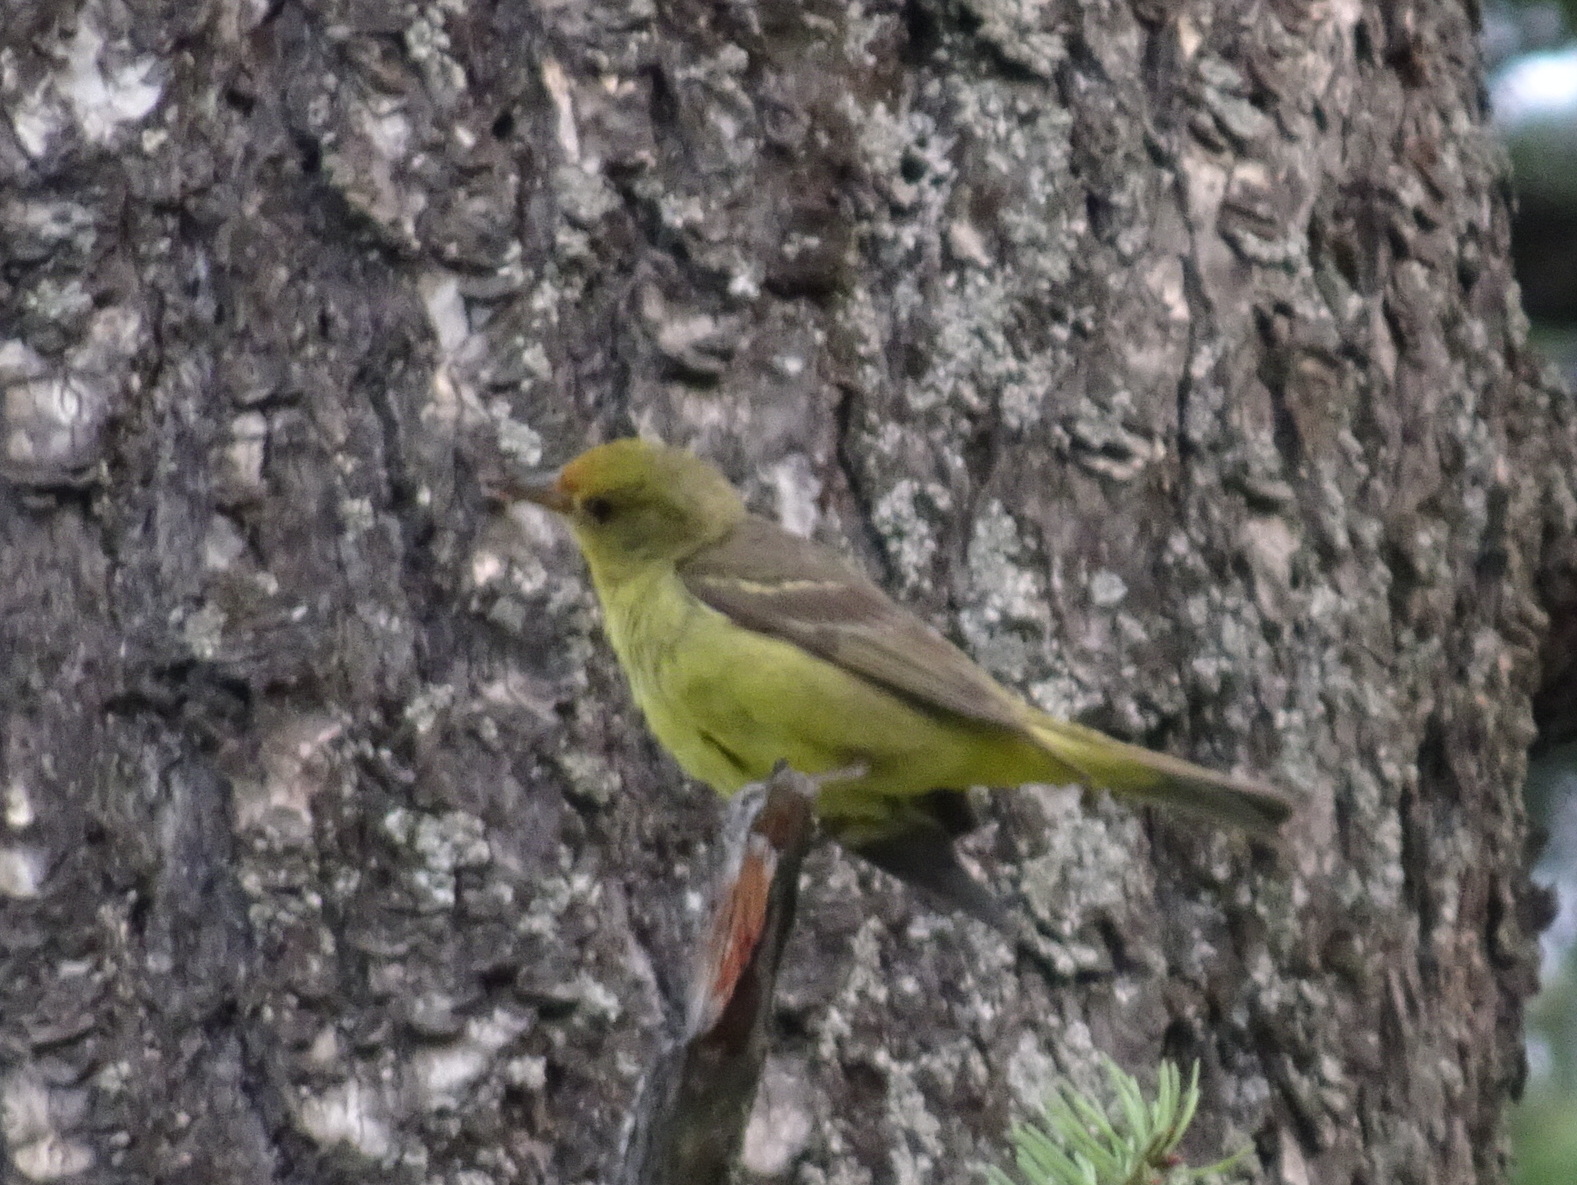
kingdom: Animalia
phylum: Chordata
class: Aves
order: Passeriformes
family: Cardinalidae
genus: Piranga
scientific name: Piranga ludoviciana
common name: Western tanager
